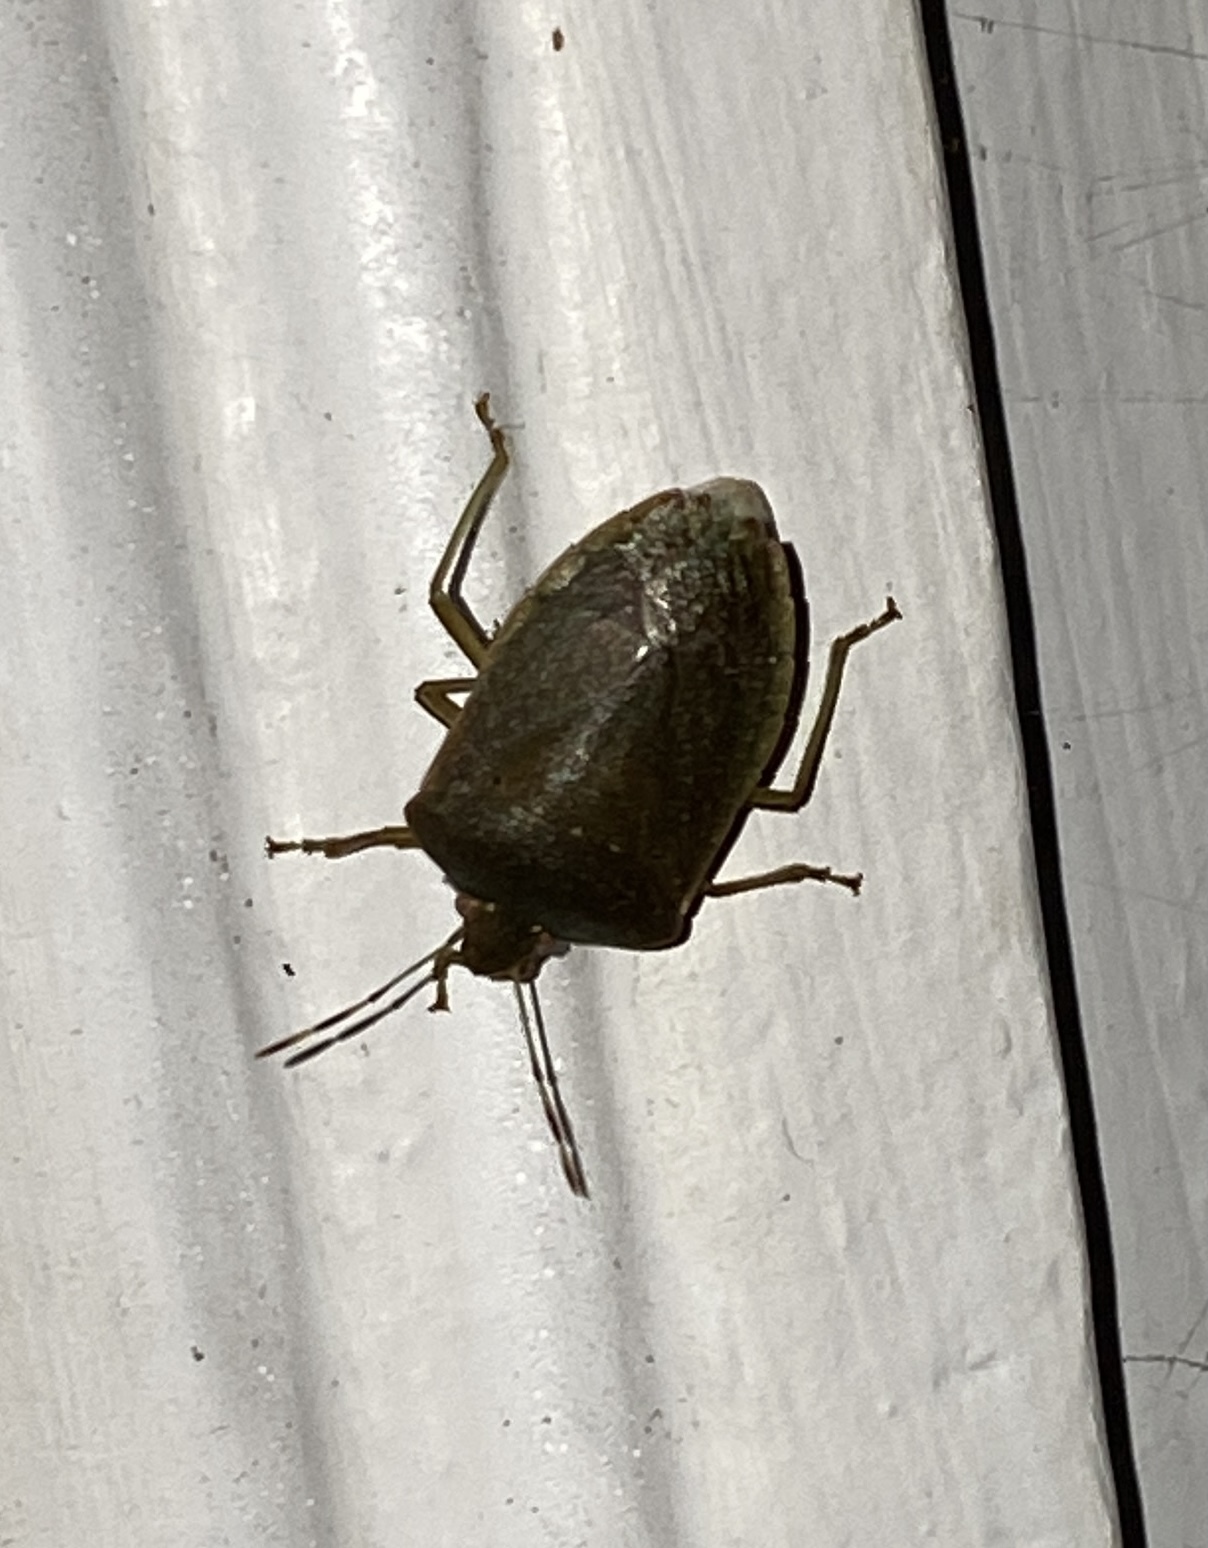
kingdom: Animalia
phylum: Arthropoda
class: Insecta
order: Hemiptera
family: Pentatomidae
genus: Nezara
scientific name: Nezara viridula
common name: Southern green stink bug
